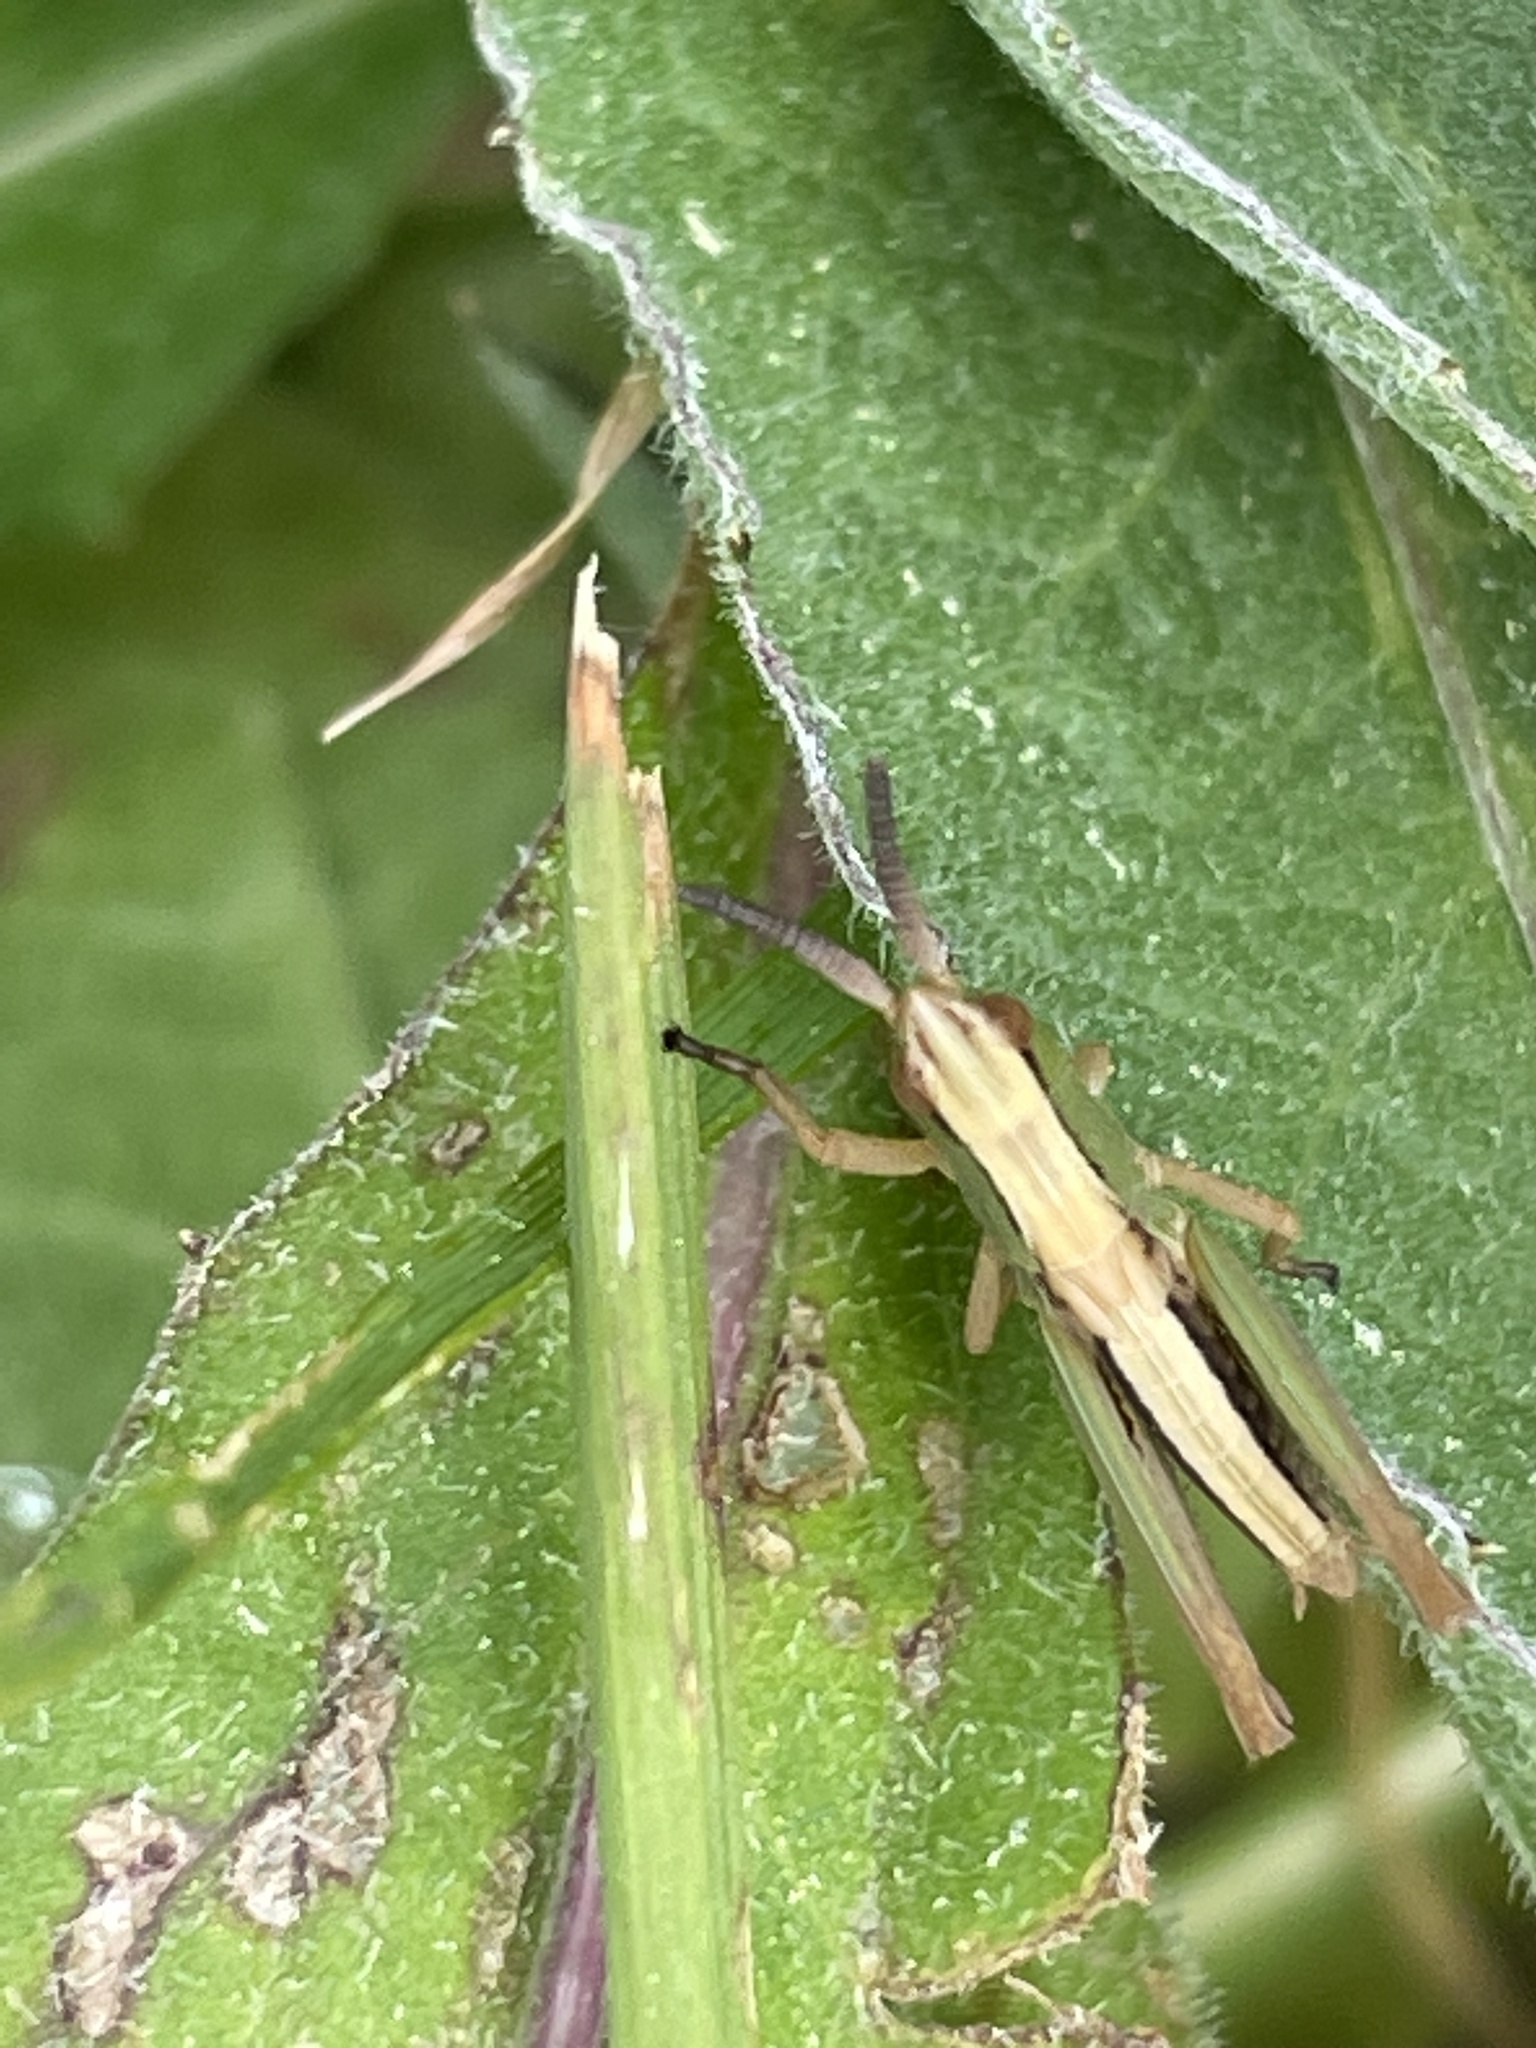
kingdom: Animalia
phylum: Arthropoda
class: Insecta
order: Orthoptera
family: Acrididae
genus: Pseudochorthippus
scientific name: Pseudochorthippus parallelus
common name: Meadow grasshopper
